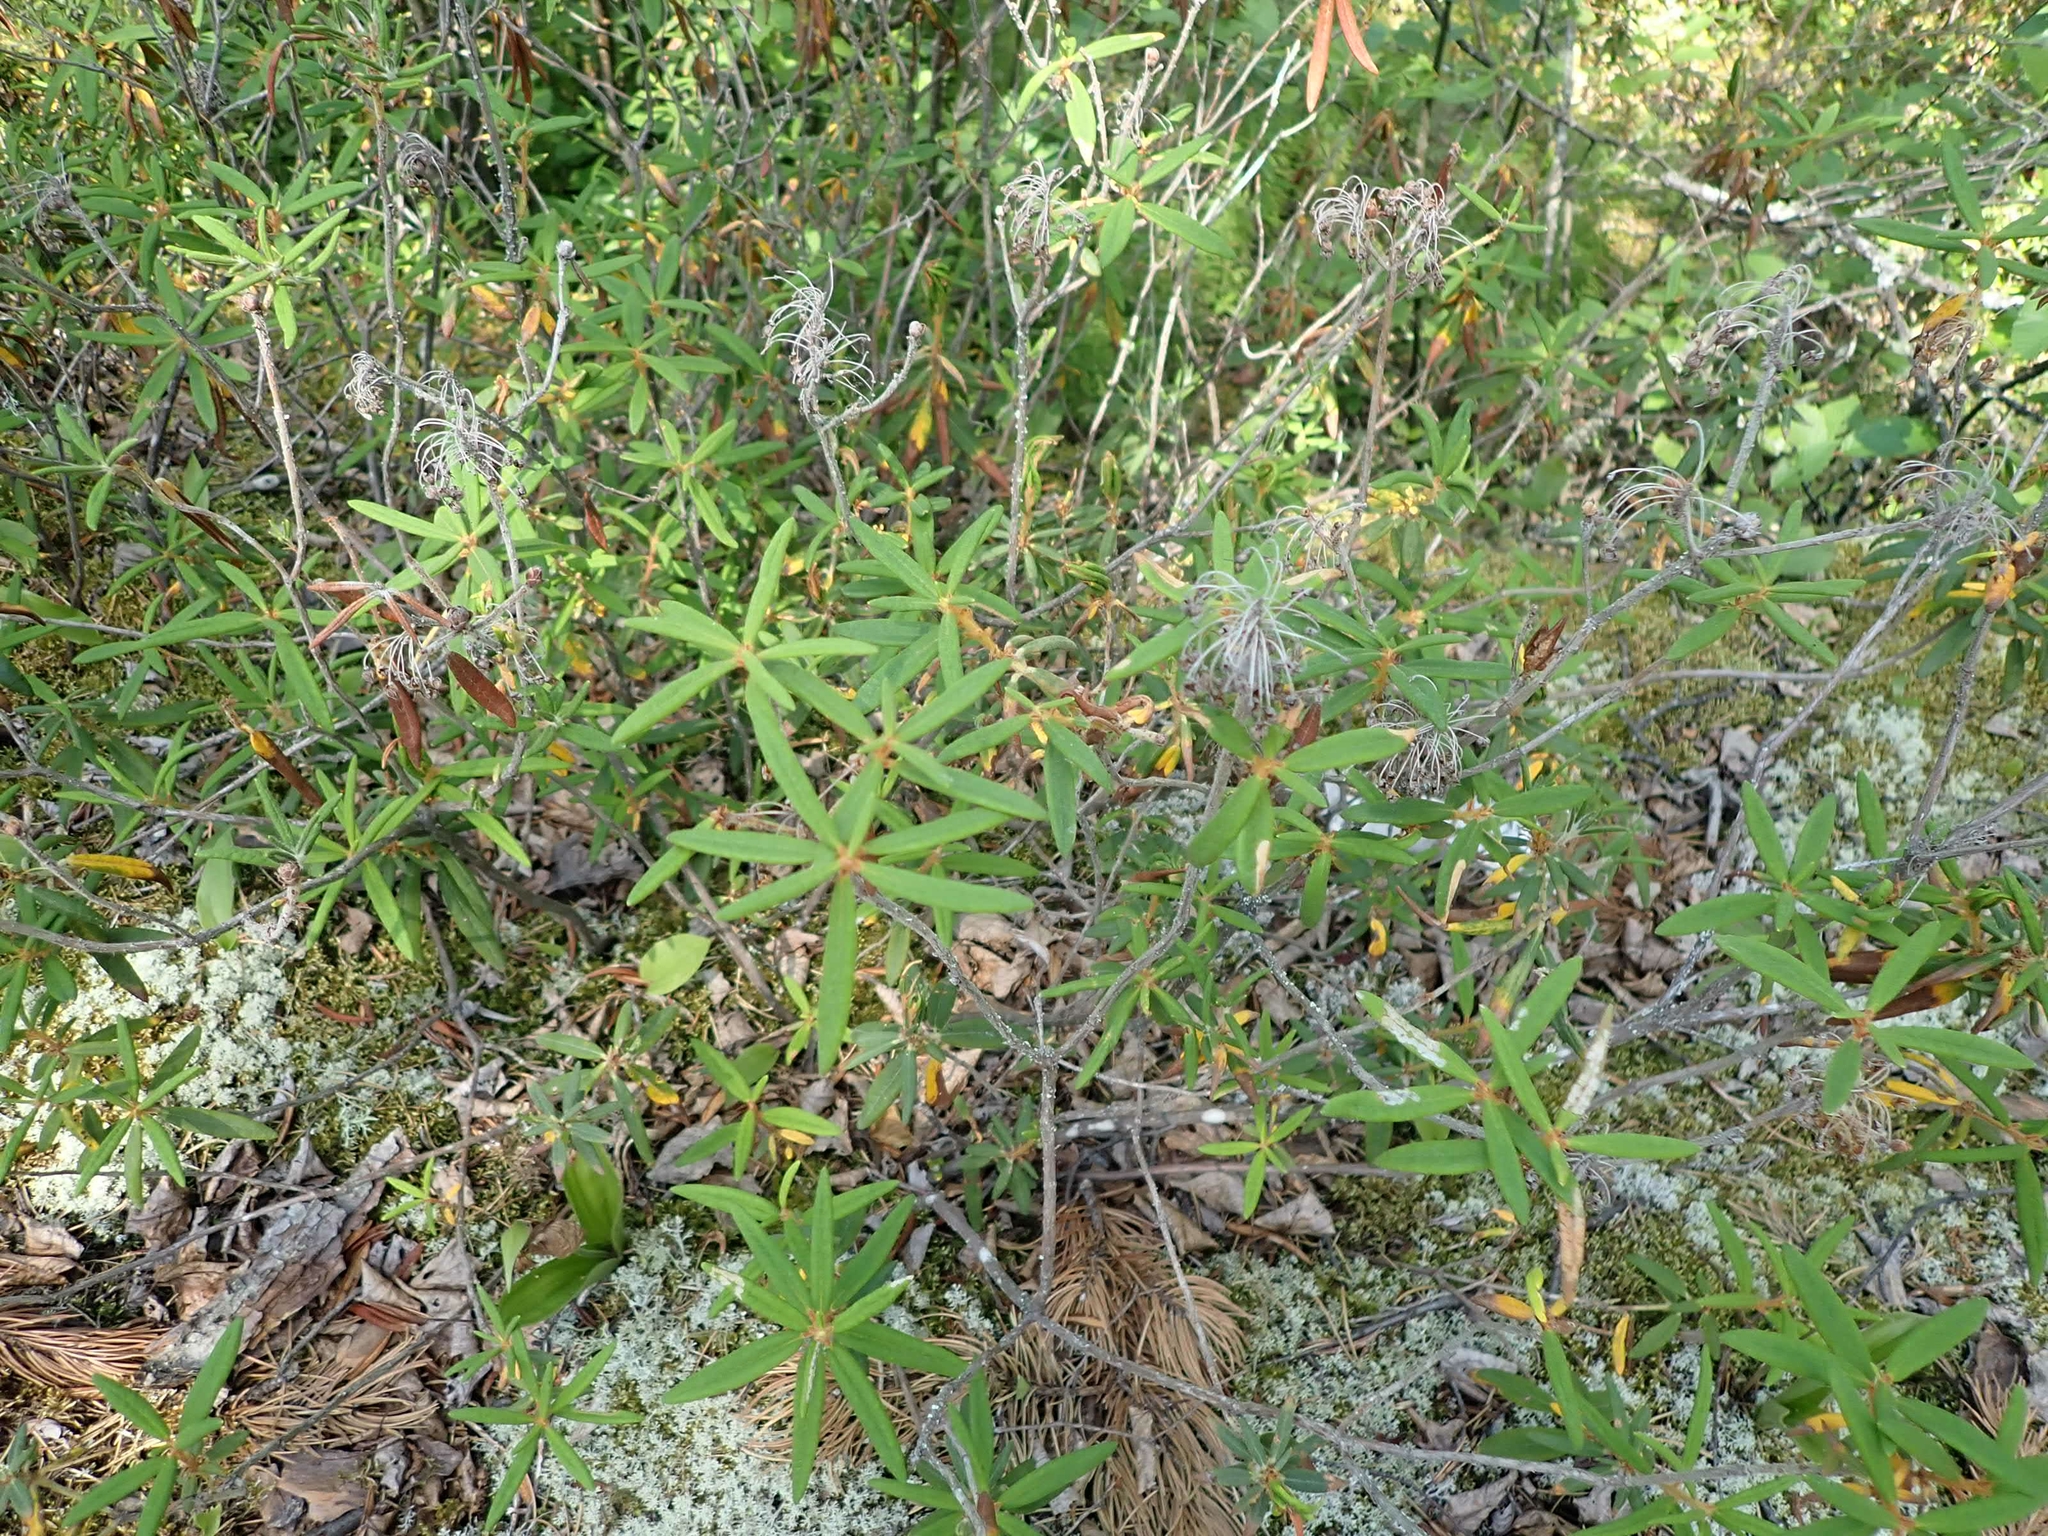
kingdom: Plantae
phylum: Tracheophyta
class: Magnoliopsida
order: Ericales
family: Ericaceae
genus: Rhododendron
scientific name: Rhododendron groenlandicum
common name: Bog labrador tea
